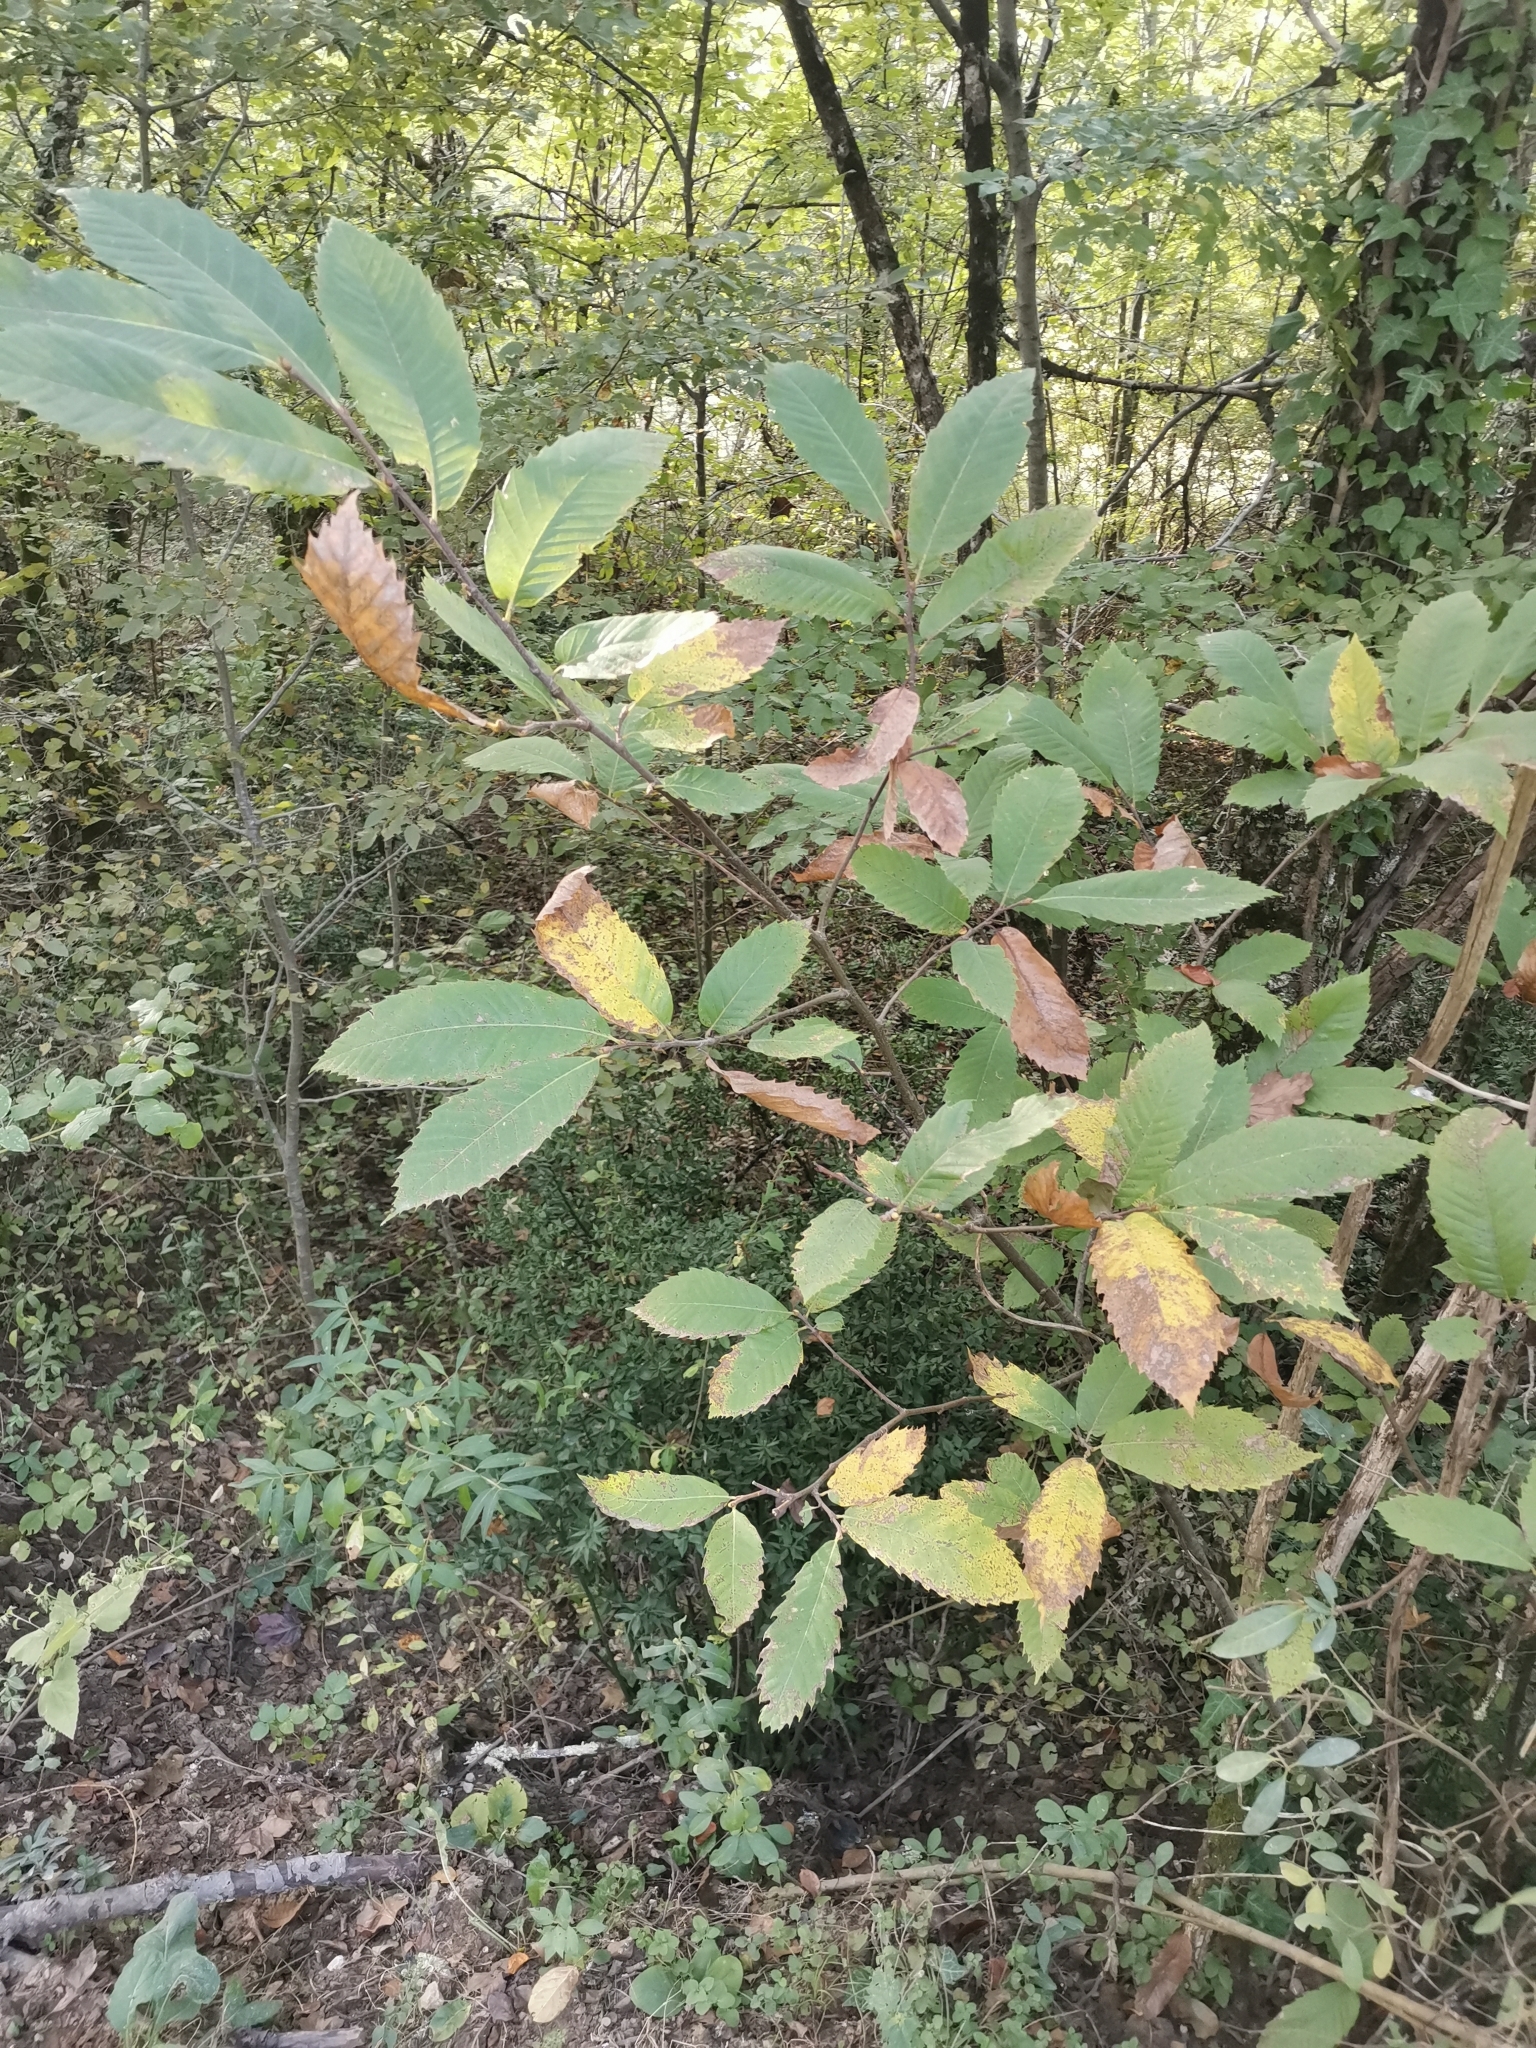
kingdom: Plantae
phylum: Tracheophyta
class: Magnoliopsida
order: Fagales
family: Fagaceae
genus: Castanea
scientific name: Castanea sativa
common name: Sweet chestnut
